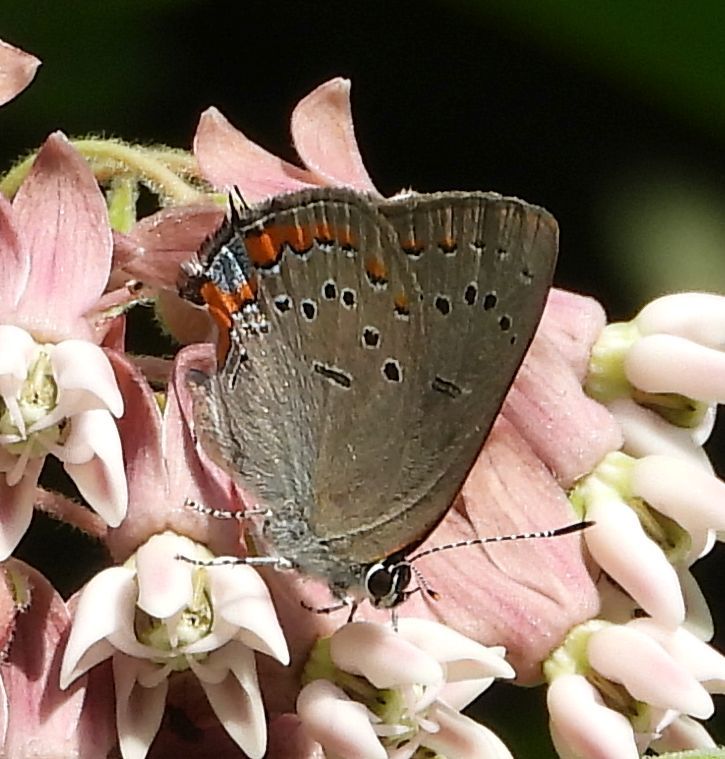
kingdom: Animalia
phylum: Arthropoda
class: Insecta
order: Lepidoptera
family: Lycaenidae
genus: Strymon
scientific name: Strymon acadica
